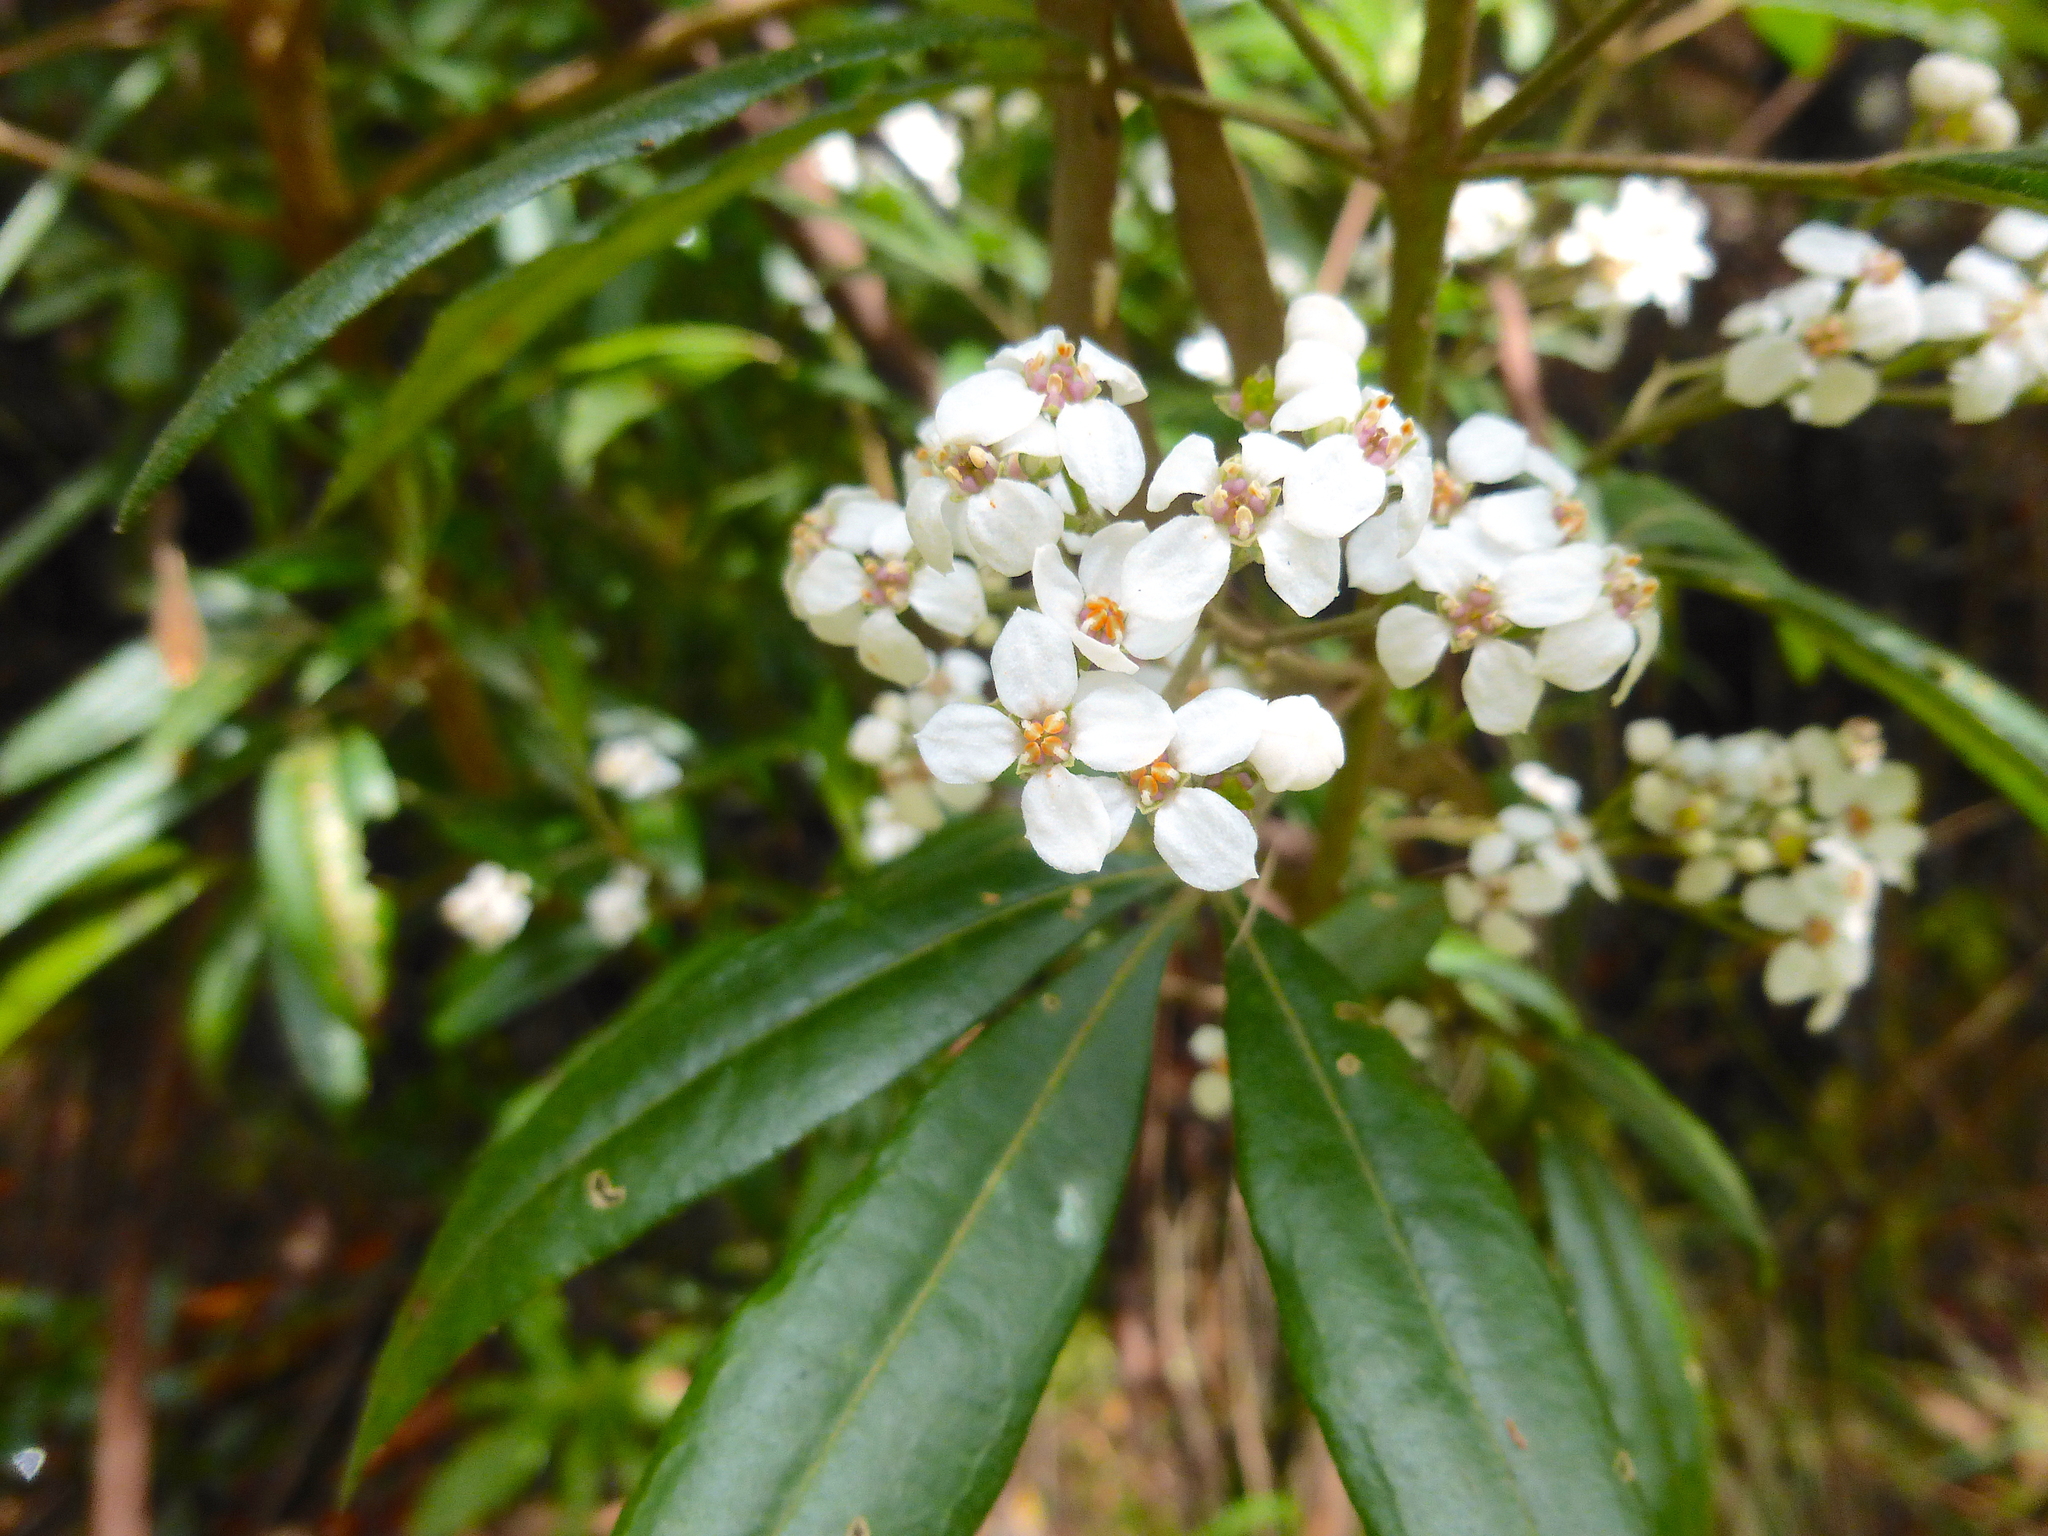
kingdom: Plantae
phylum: Tracheophyta
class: Magnoliopsida
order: Sapindales
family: Rutaceae
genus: Zieria
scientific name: Zieria arborescens
